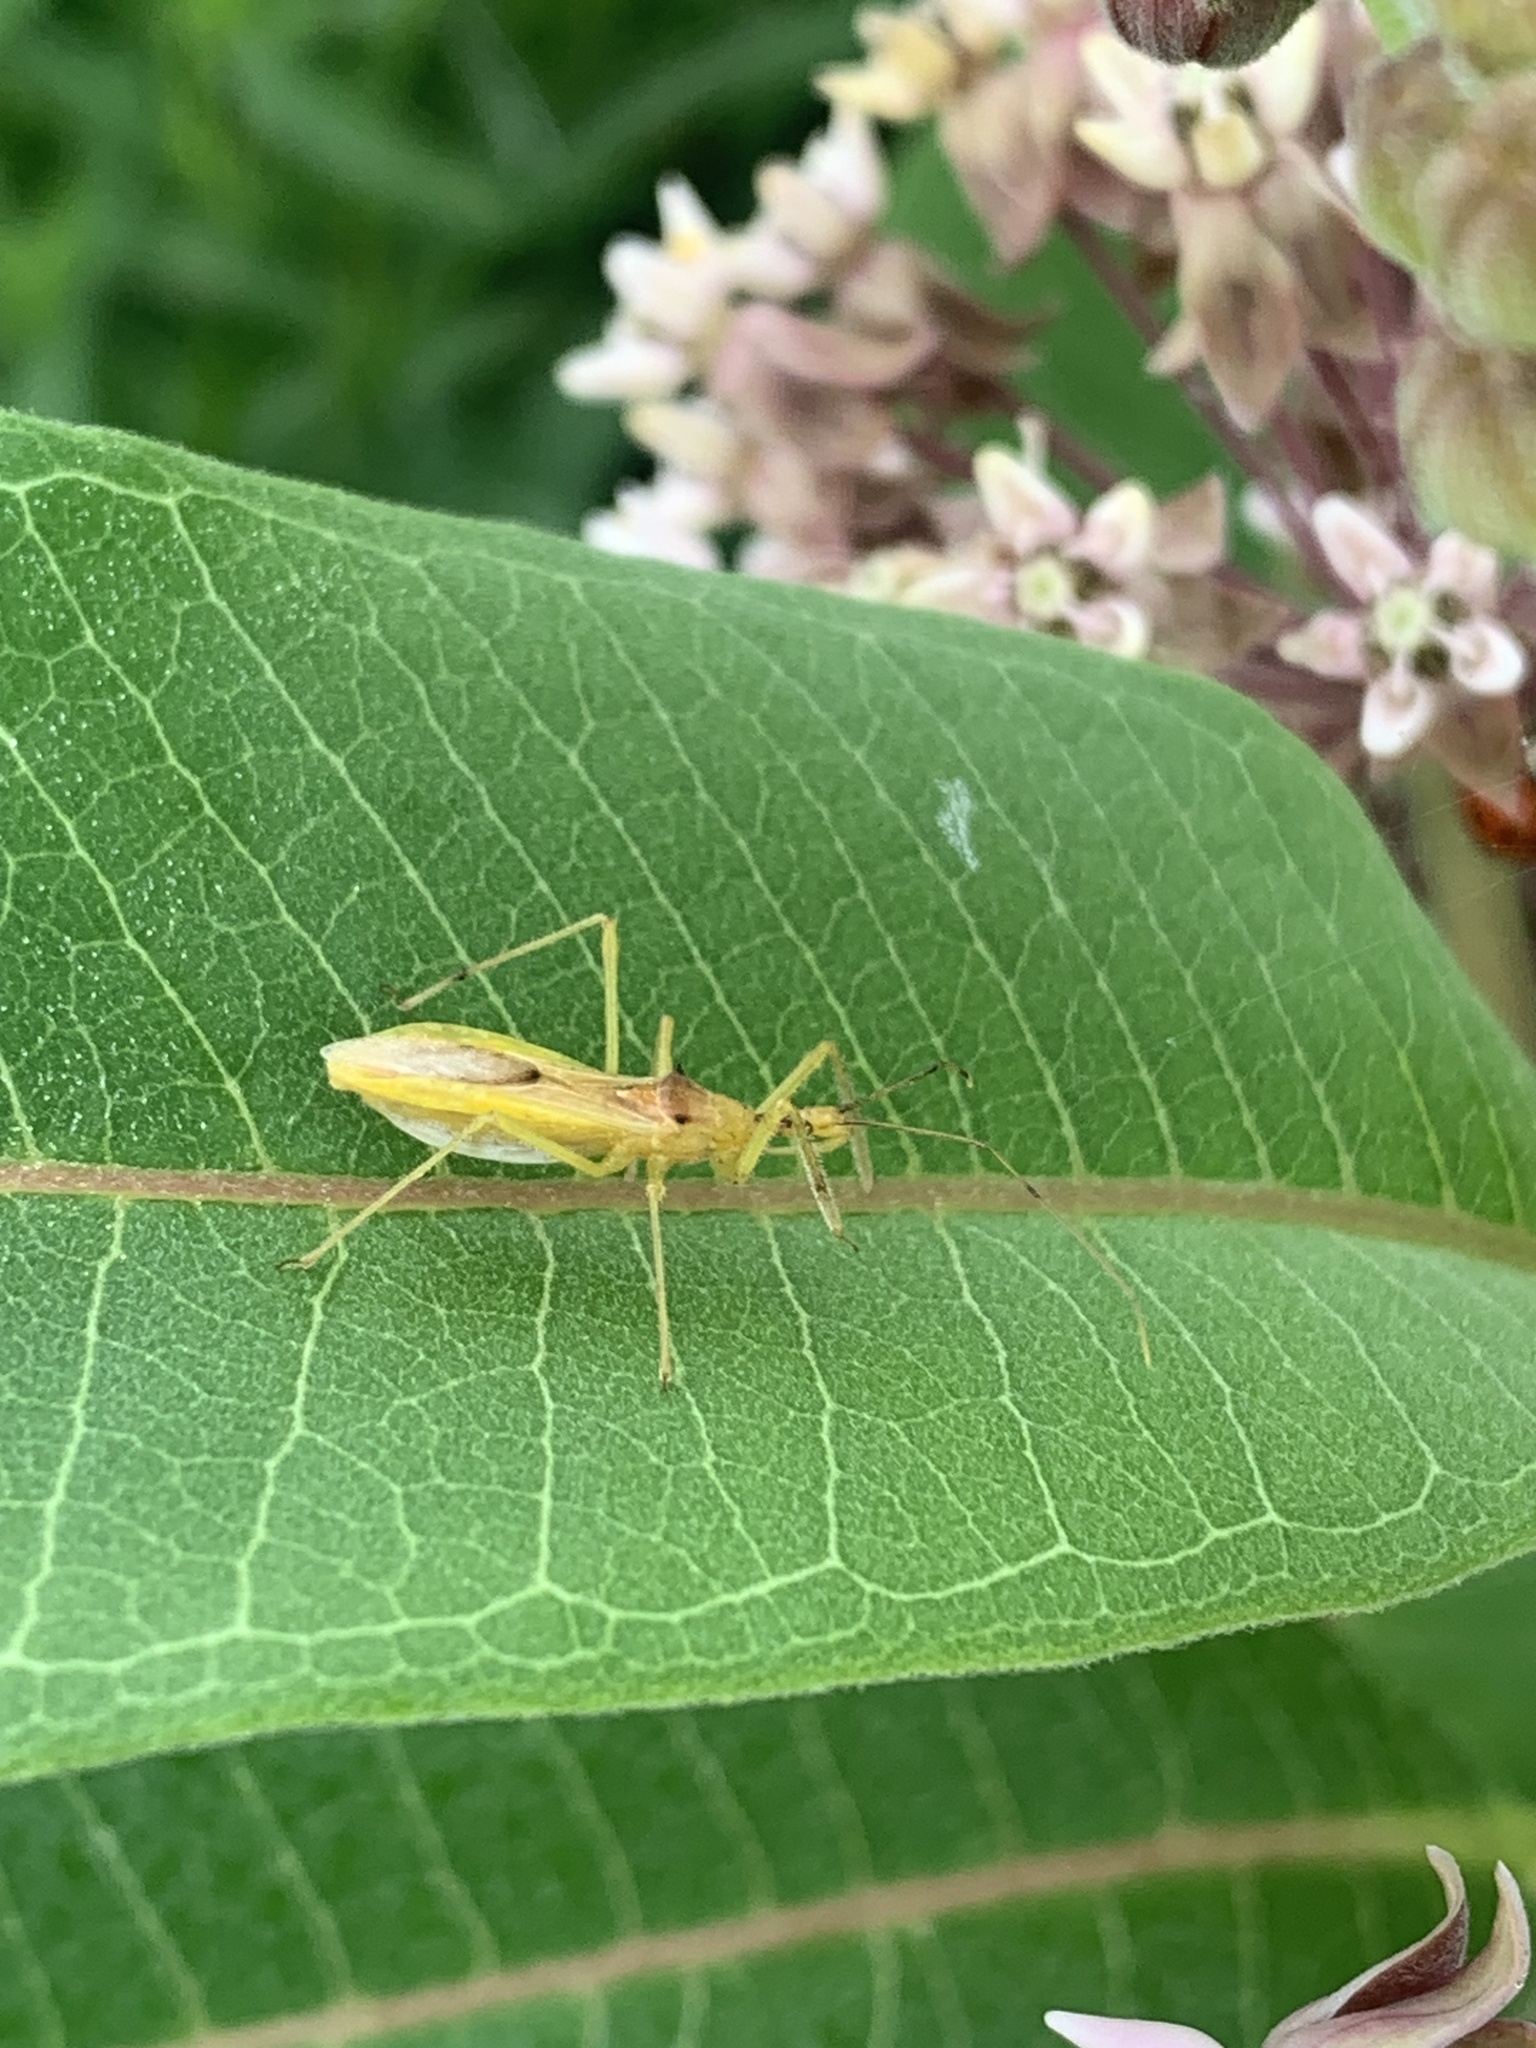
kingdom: Animalia
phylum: Arthropoda
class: Insecta
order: Hemiptera
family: Reduviidae
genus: Zelus
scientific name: Zelus luridus
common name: Pale green assassin bug
